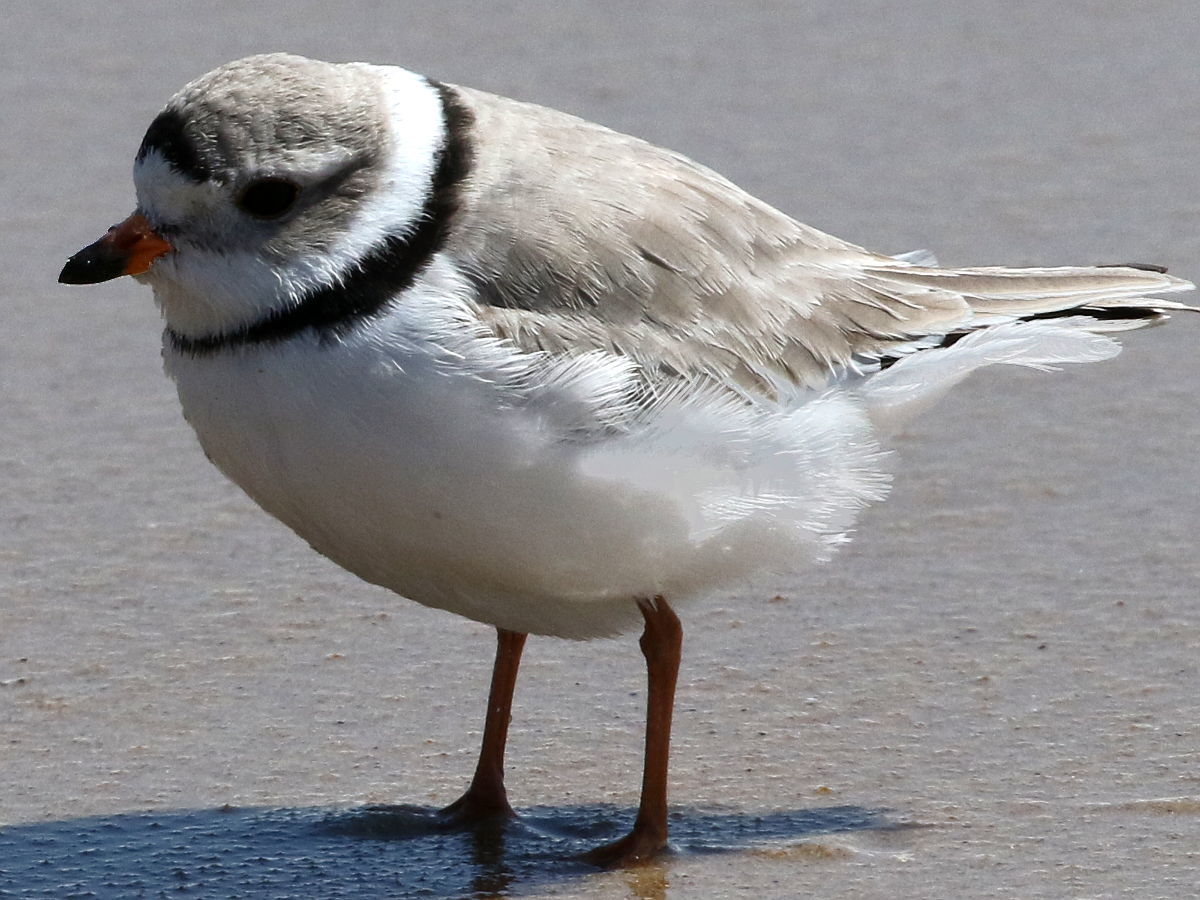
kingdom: Animalia
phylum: Chordata
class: Aves
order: Charadriiformes
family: Charadriidae
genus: Charadrius
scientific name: Charadrius melodus
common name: Piping plover
